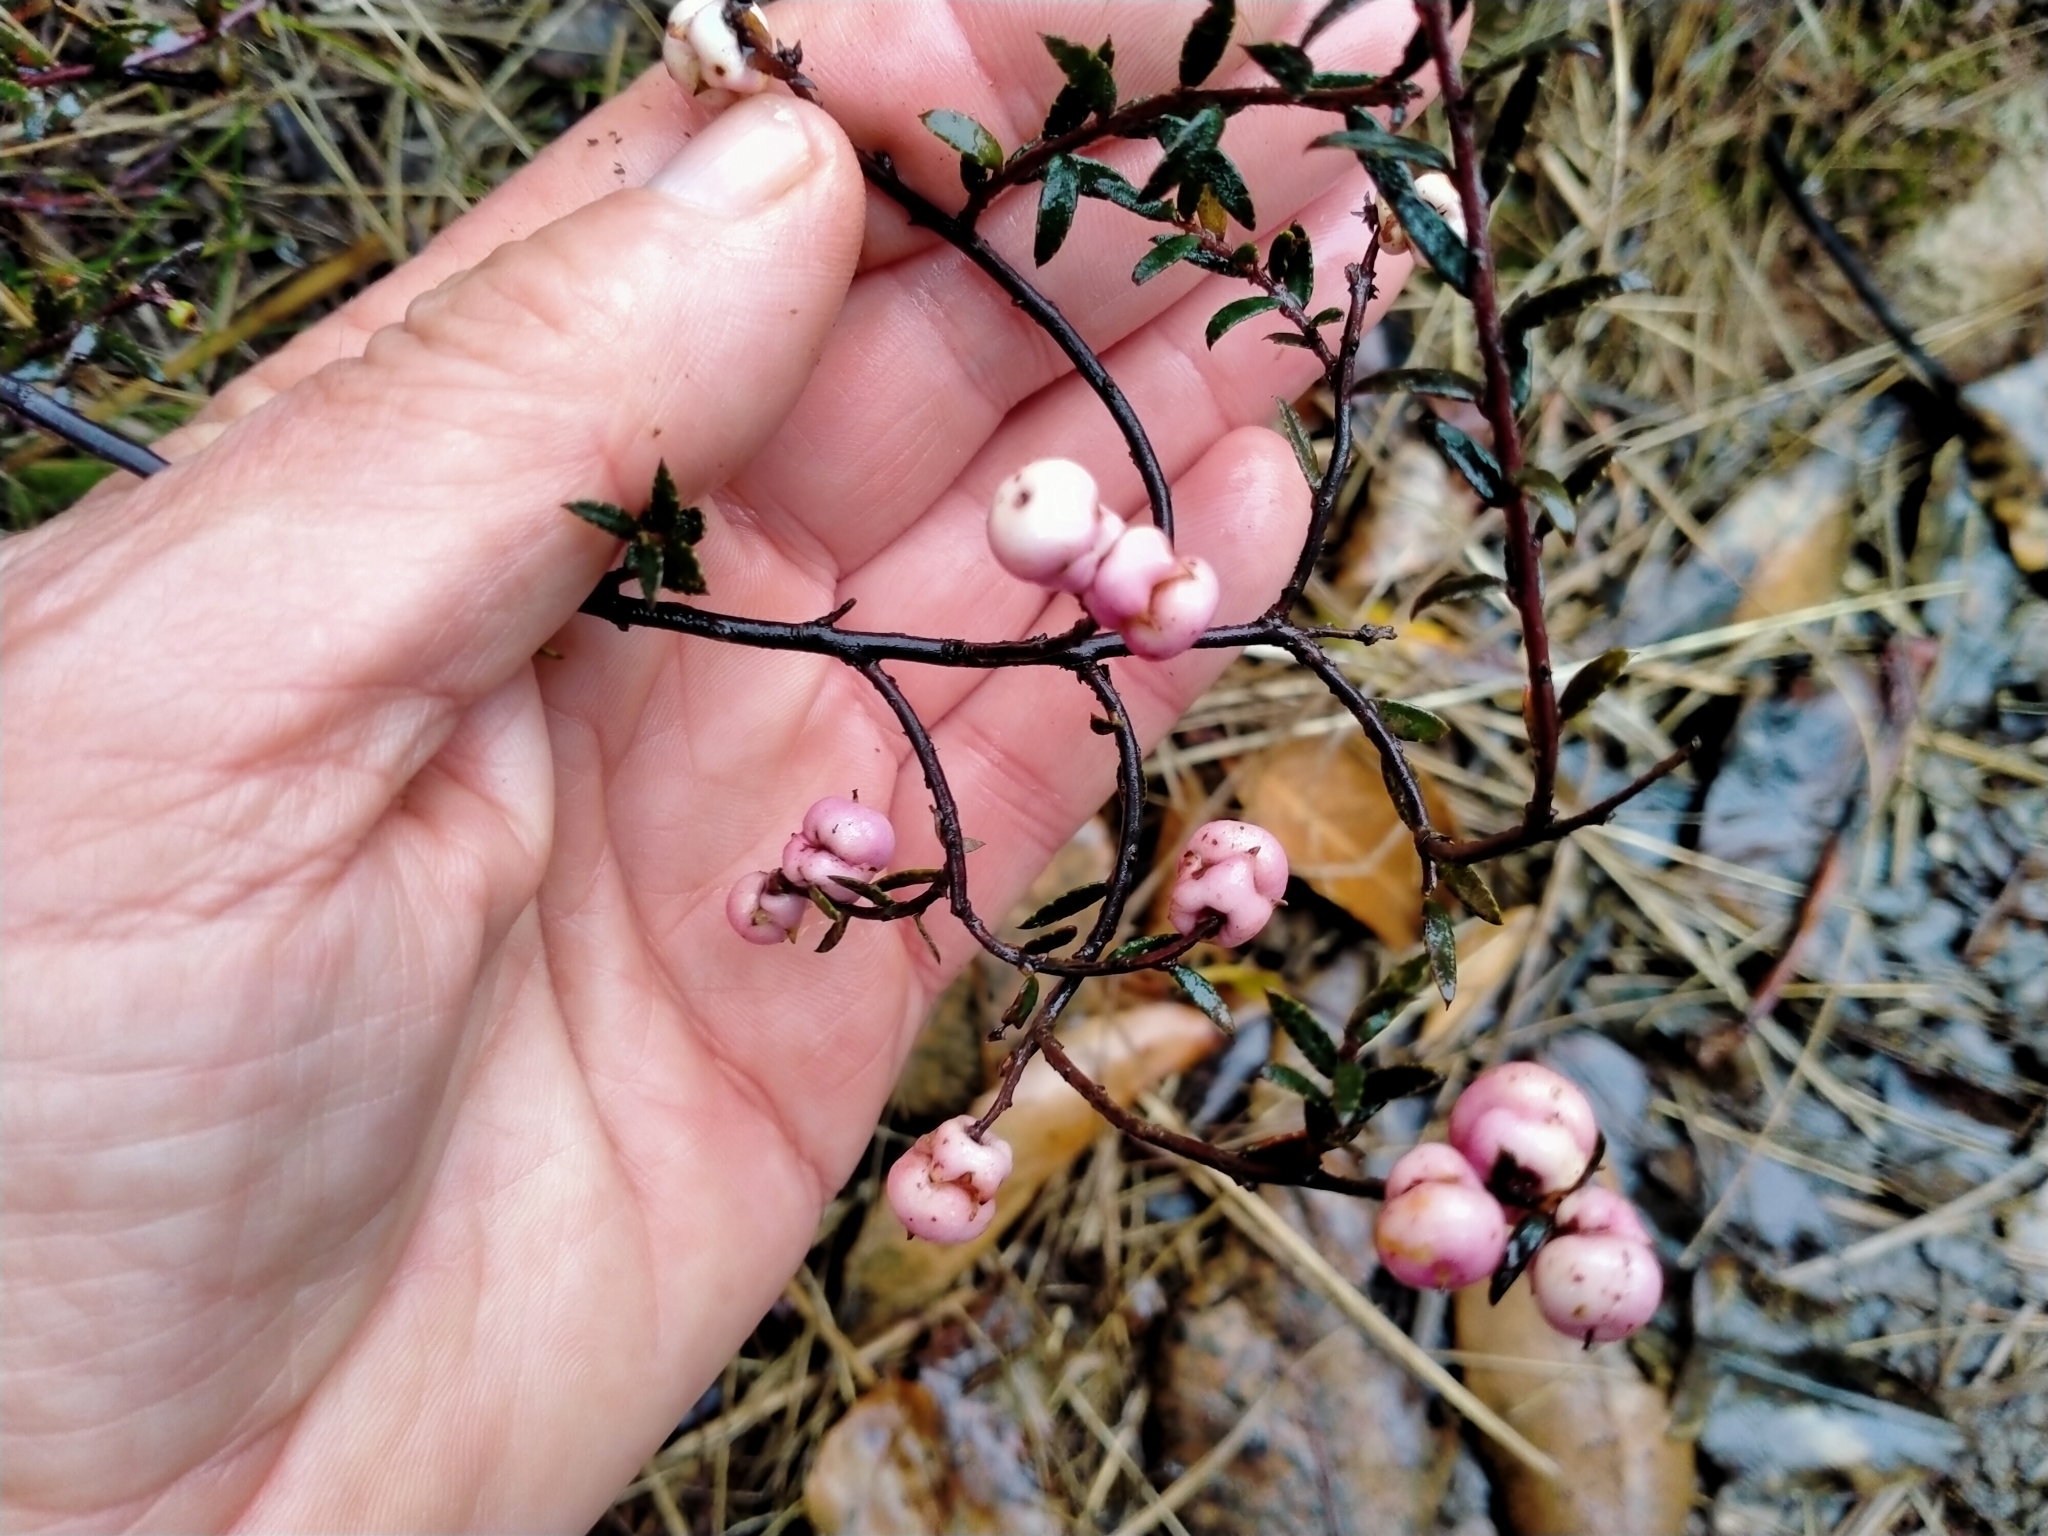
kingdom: Plantae
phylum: Tracheophyta
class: Magnoliopsida
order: Ericales
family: Ericaceae
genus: Gaultheria
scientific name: Gaultheria macrostigma
